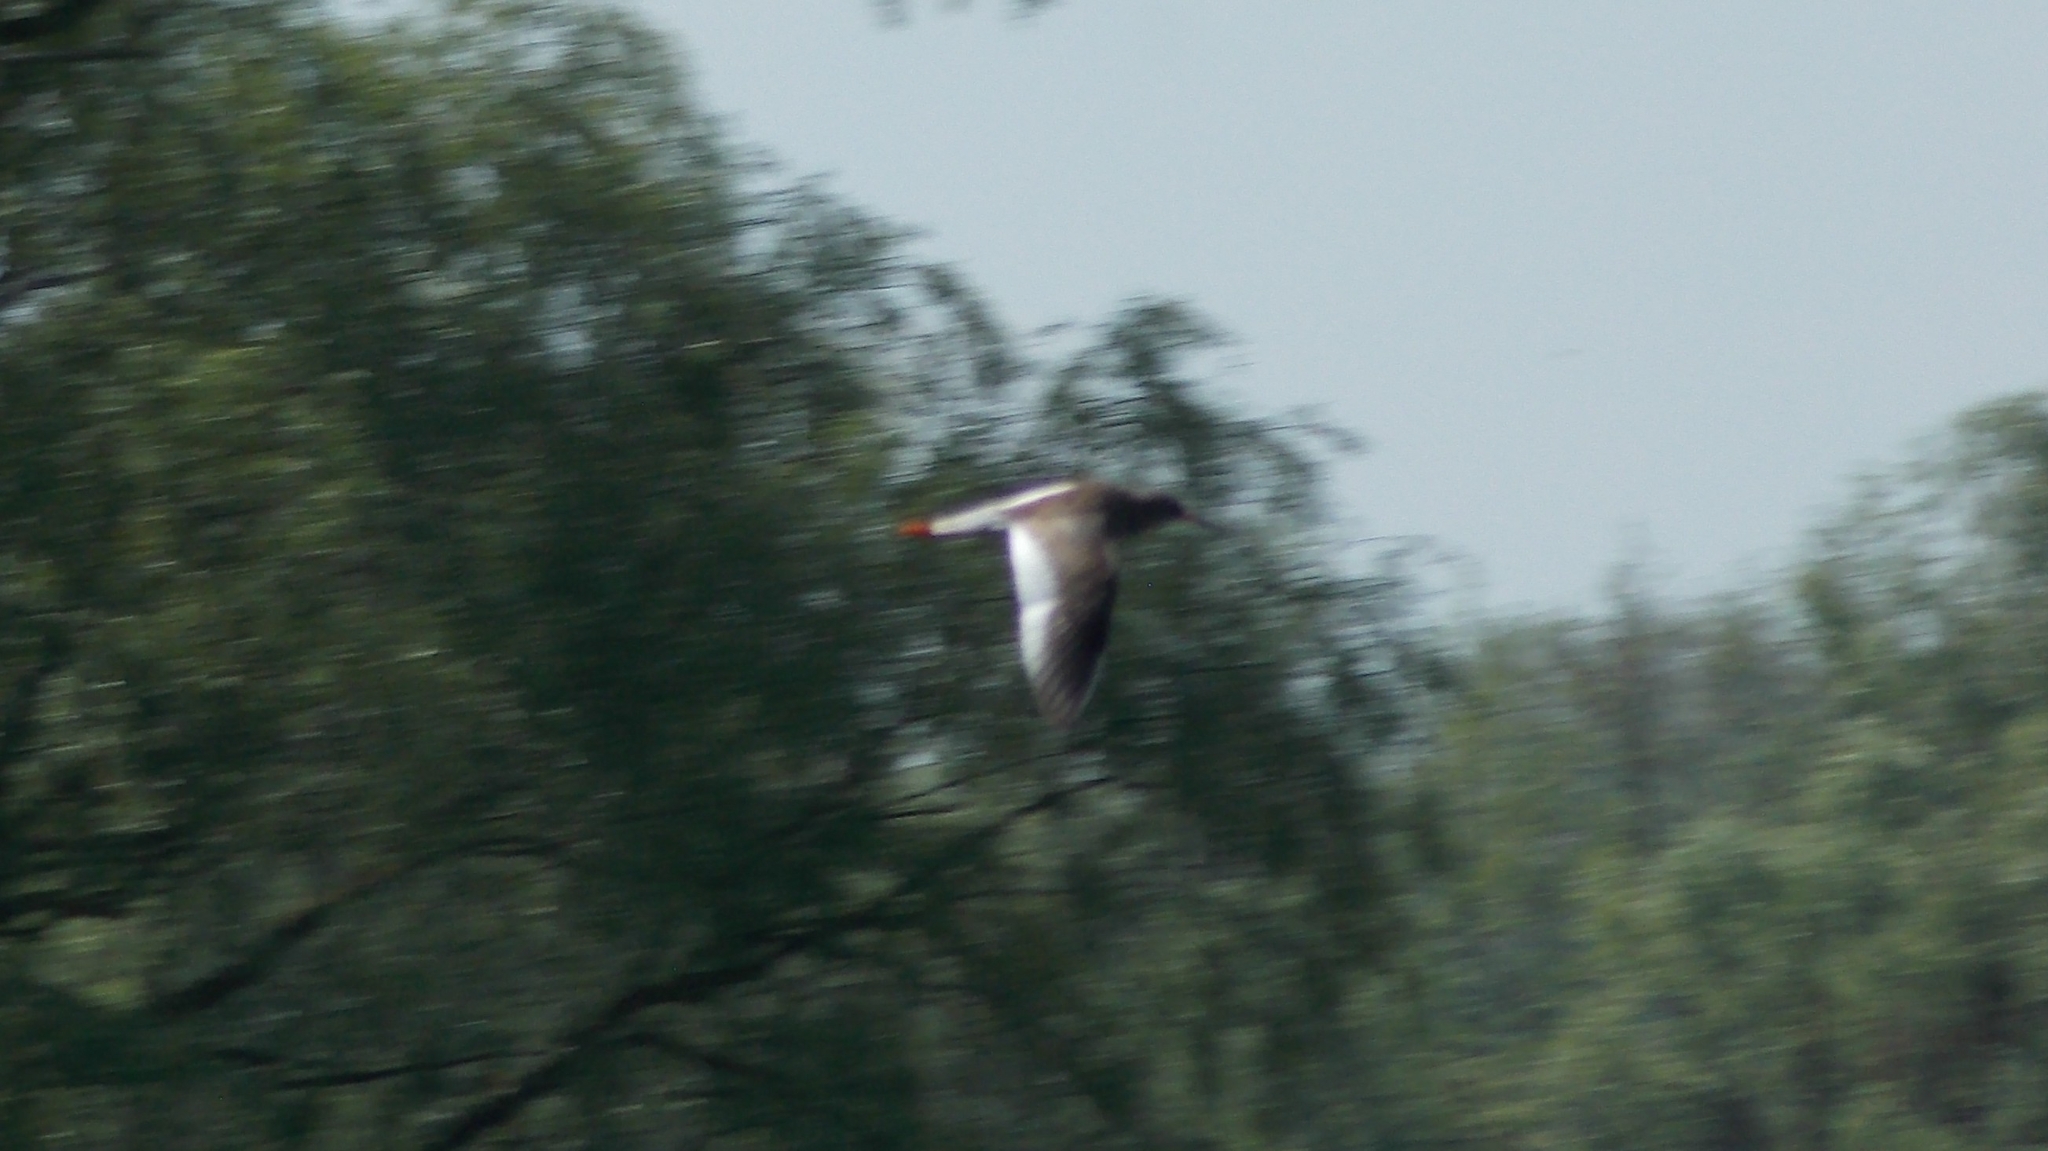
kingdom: Animalia
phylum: Chordata
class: Aves
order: Charadriiformes
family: Scolopacidae
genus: Tringa
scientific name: Tringa totanus
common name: Common redshank
